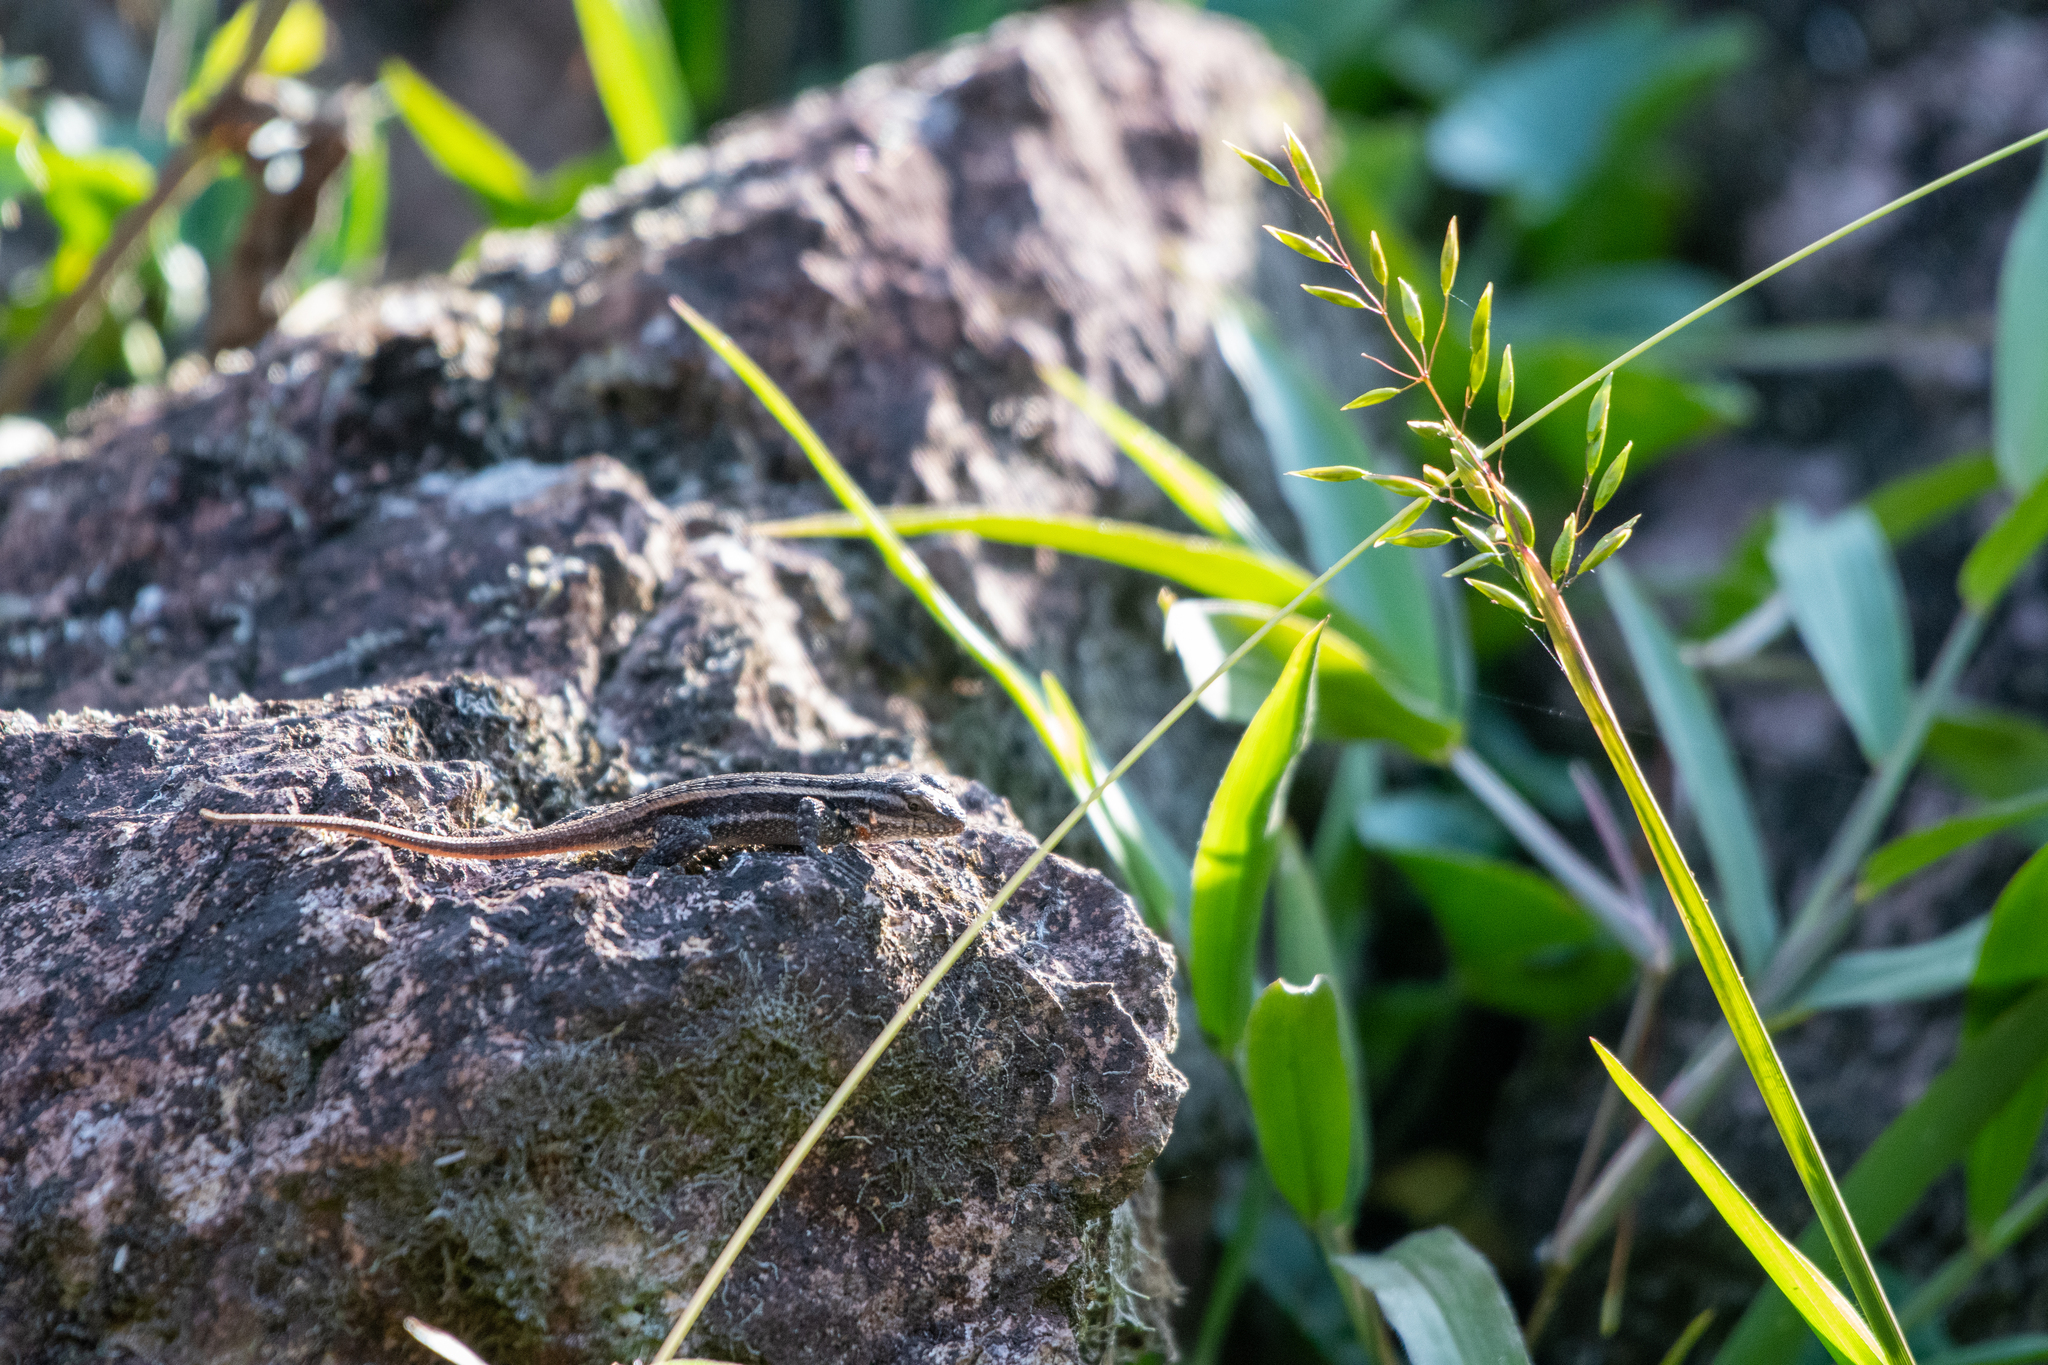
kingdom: Animalia
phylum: Chordata
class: Squamata
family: Phrynosomatidae
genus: Sceloporus
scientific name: Sceloporus variabilis
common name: Rosebelly lizard
